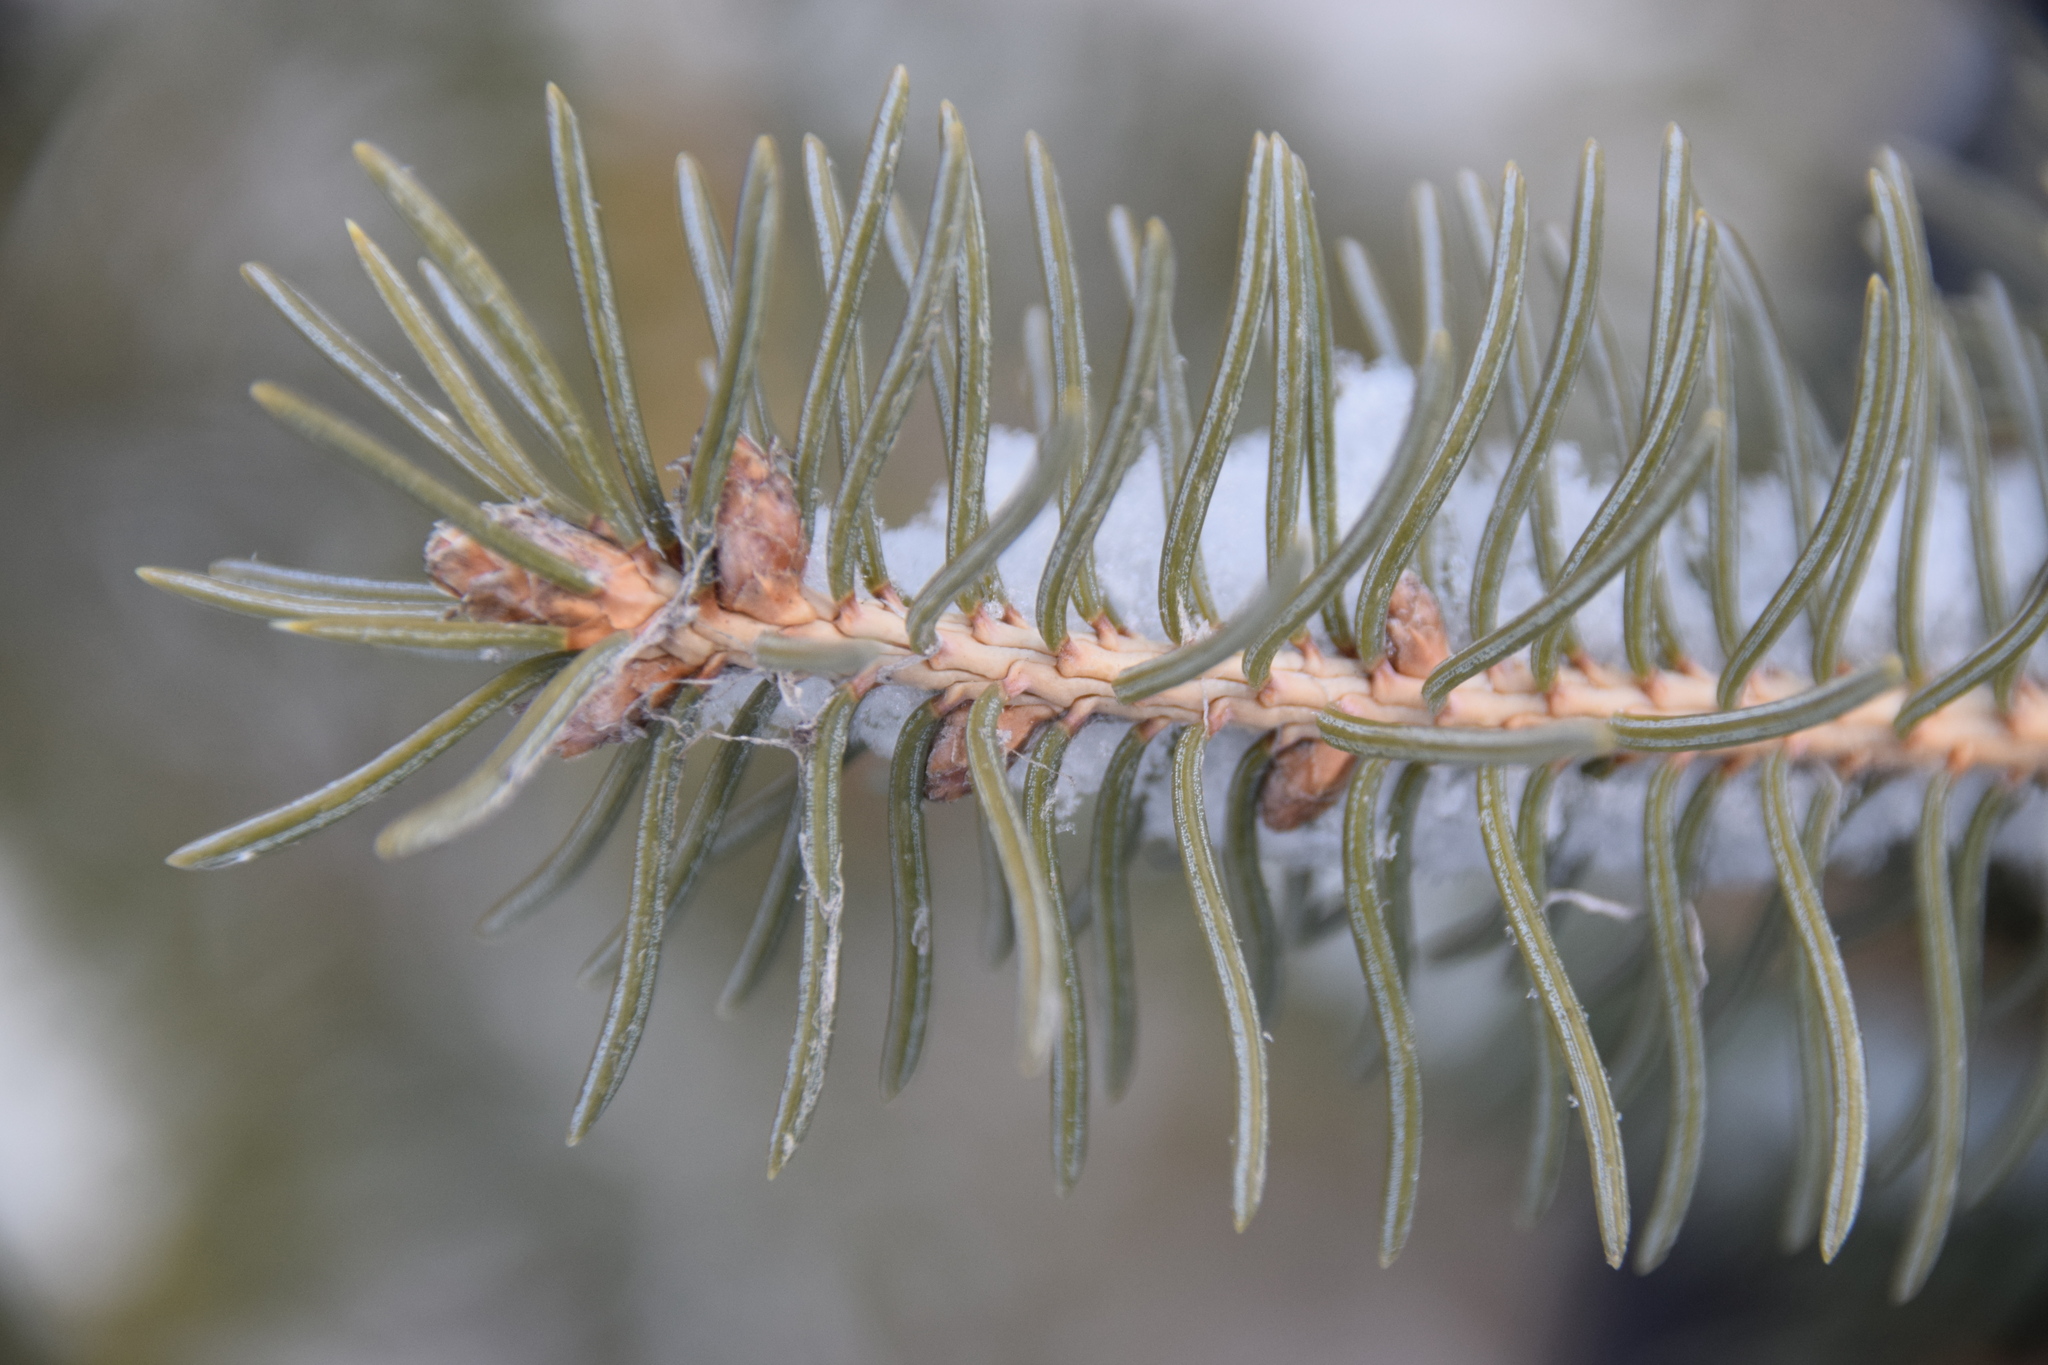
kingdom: Plantae
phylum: Tracheophyta
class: Pinopsida
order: Pinales
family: Pinaceae
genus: Picea
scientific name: Picea glauca
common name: White spruce
